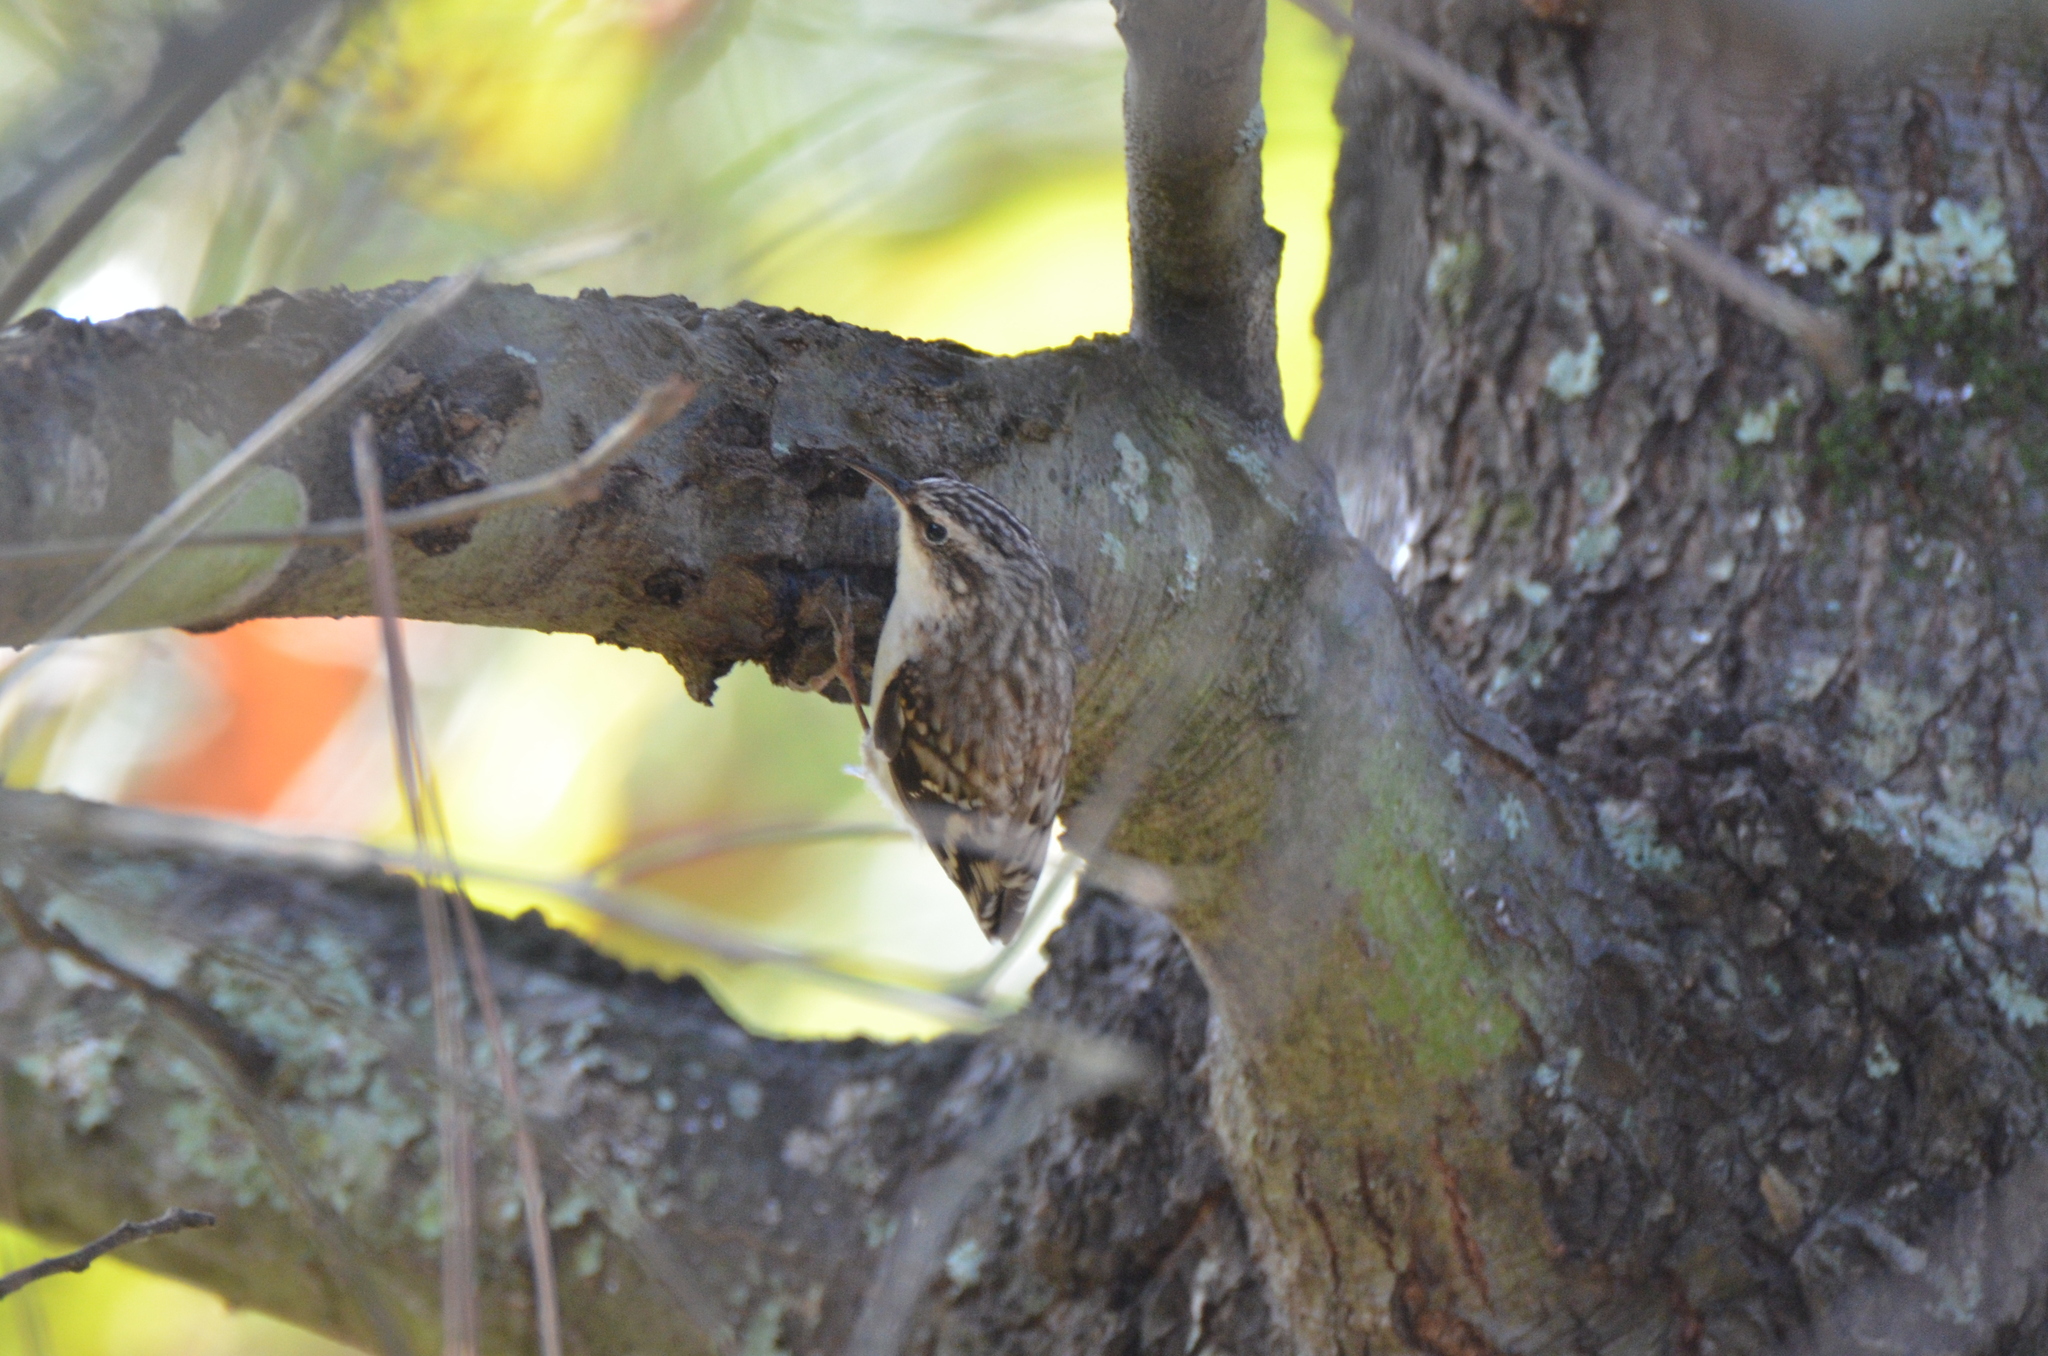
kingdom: Animalia
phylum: Chordata
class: Aves
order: Passeriformes
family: Certhiidae
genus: Certhia
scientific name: Certhia americana
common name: Brown creeper
